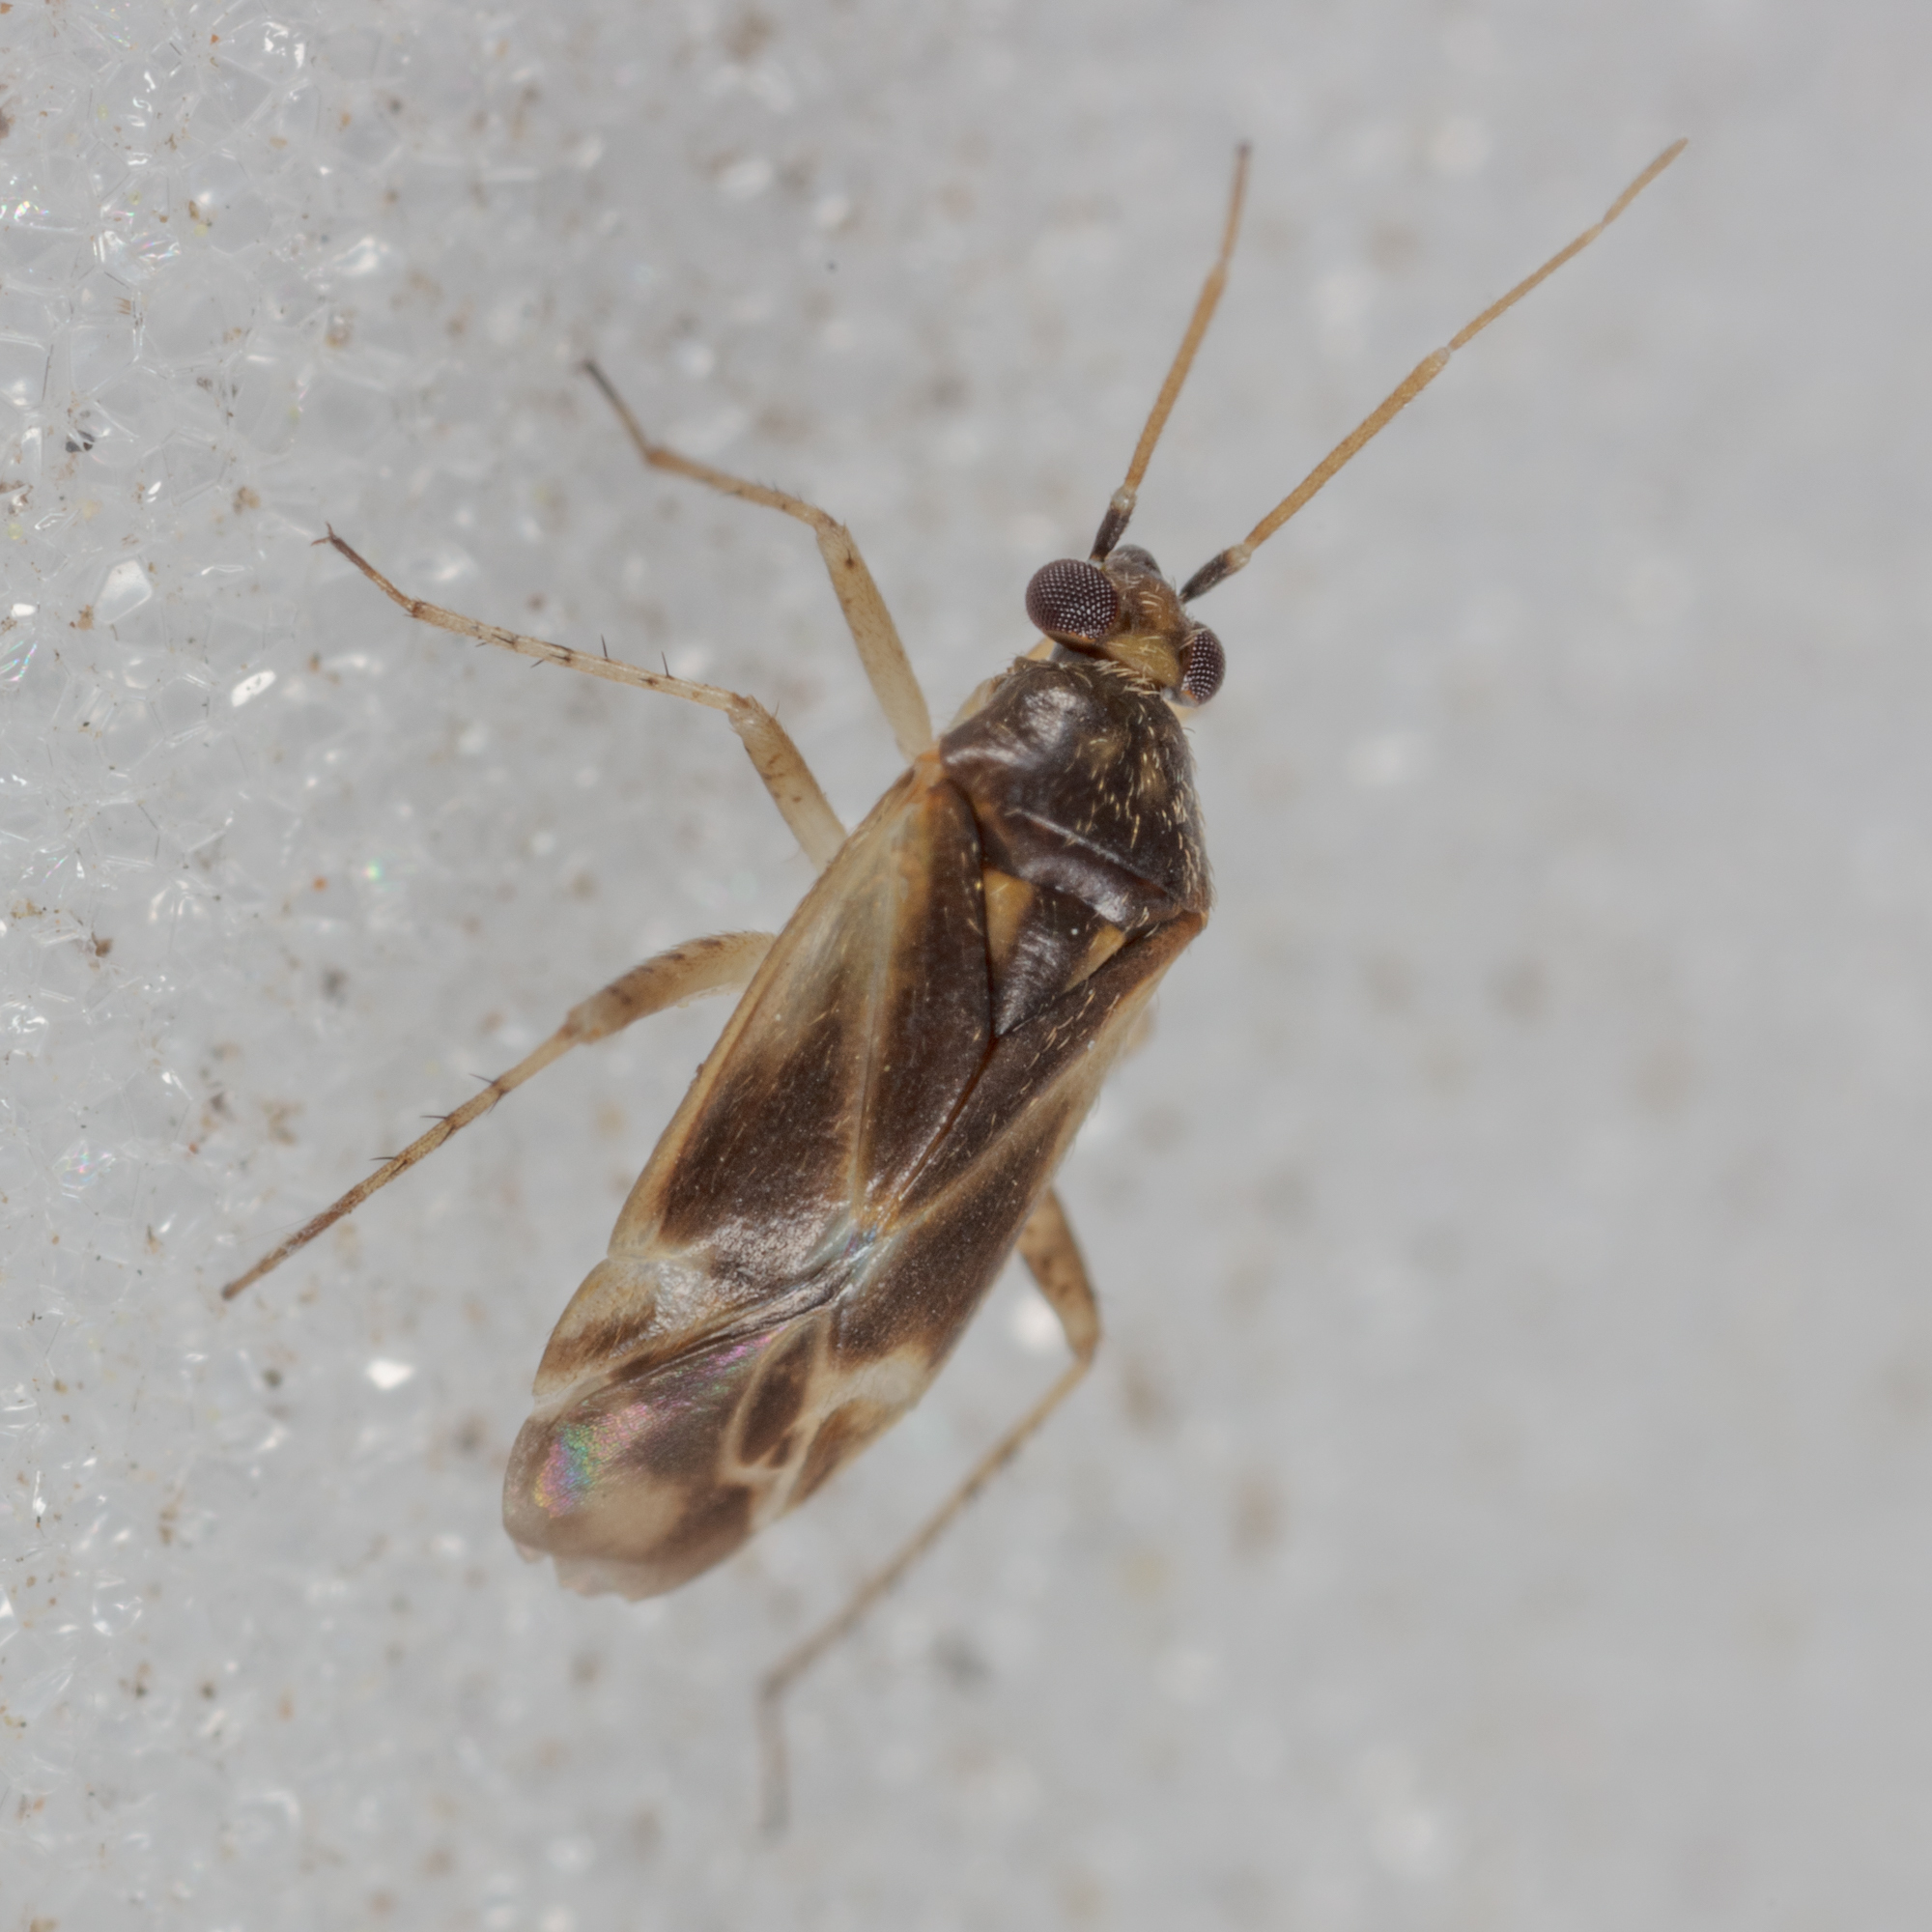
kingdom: Animalia
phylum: Arthropoda
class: Insecta
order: Hemiptera
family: Miridae
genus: Plagiognathus
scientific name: Plagiognathus politus
